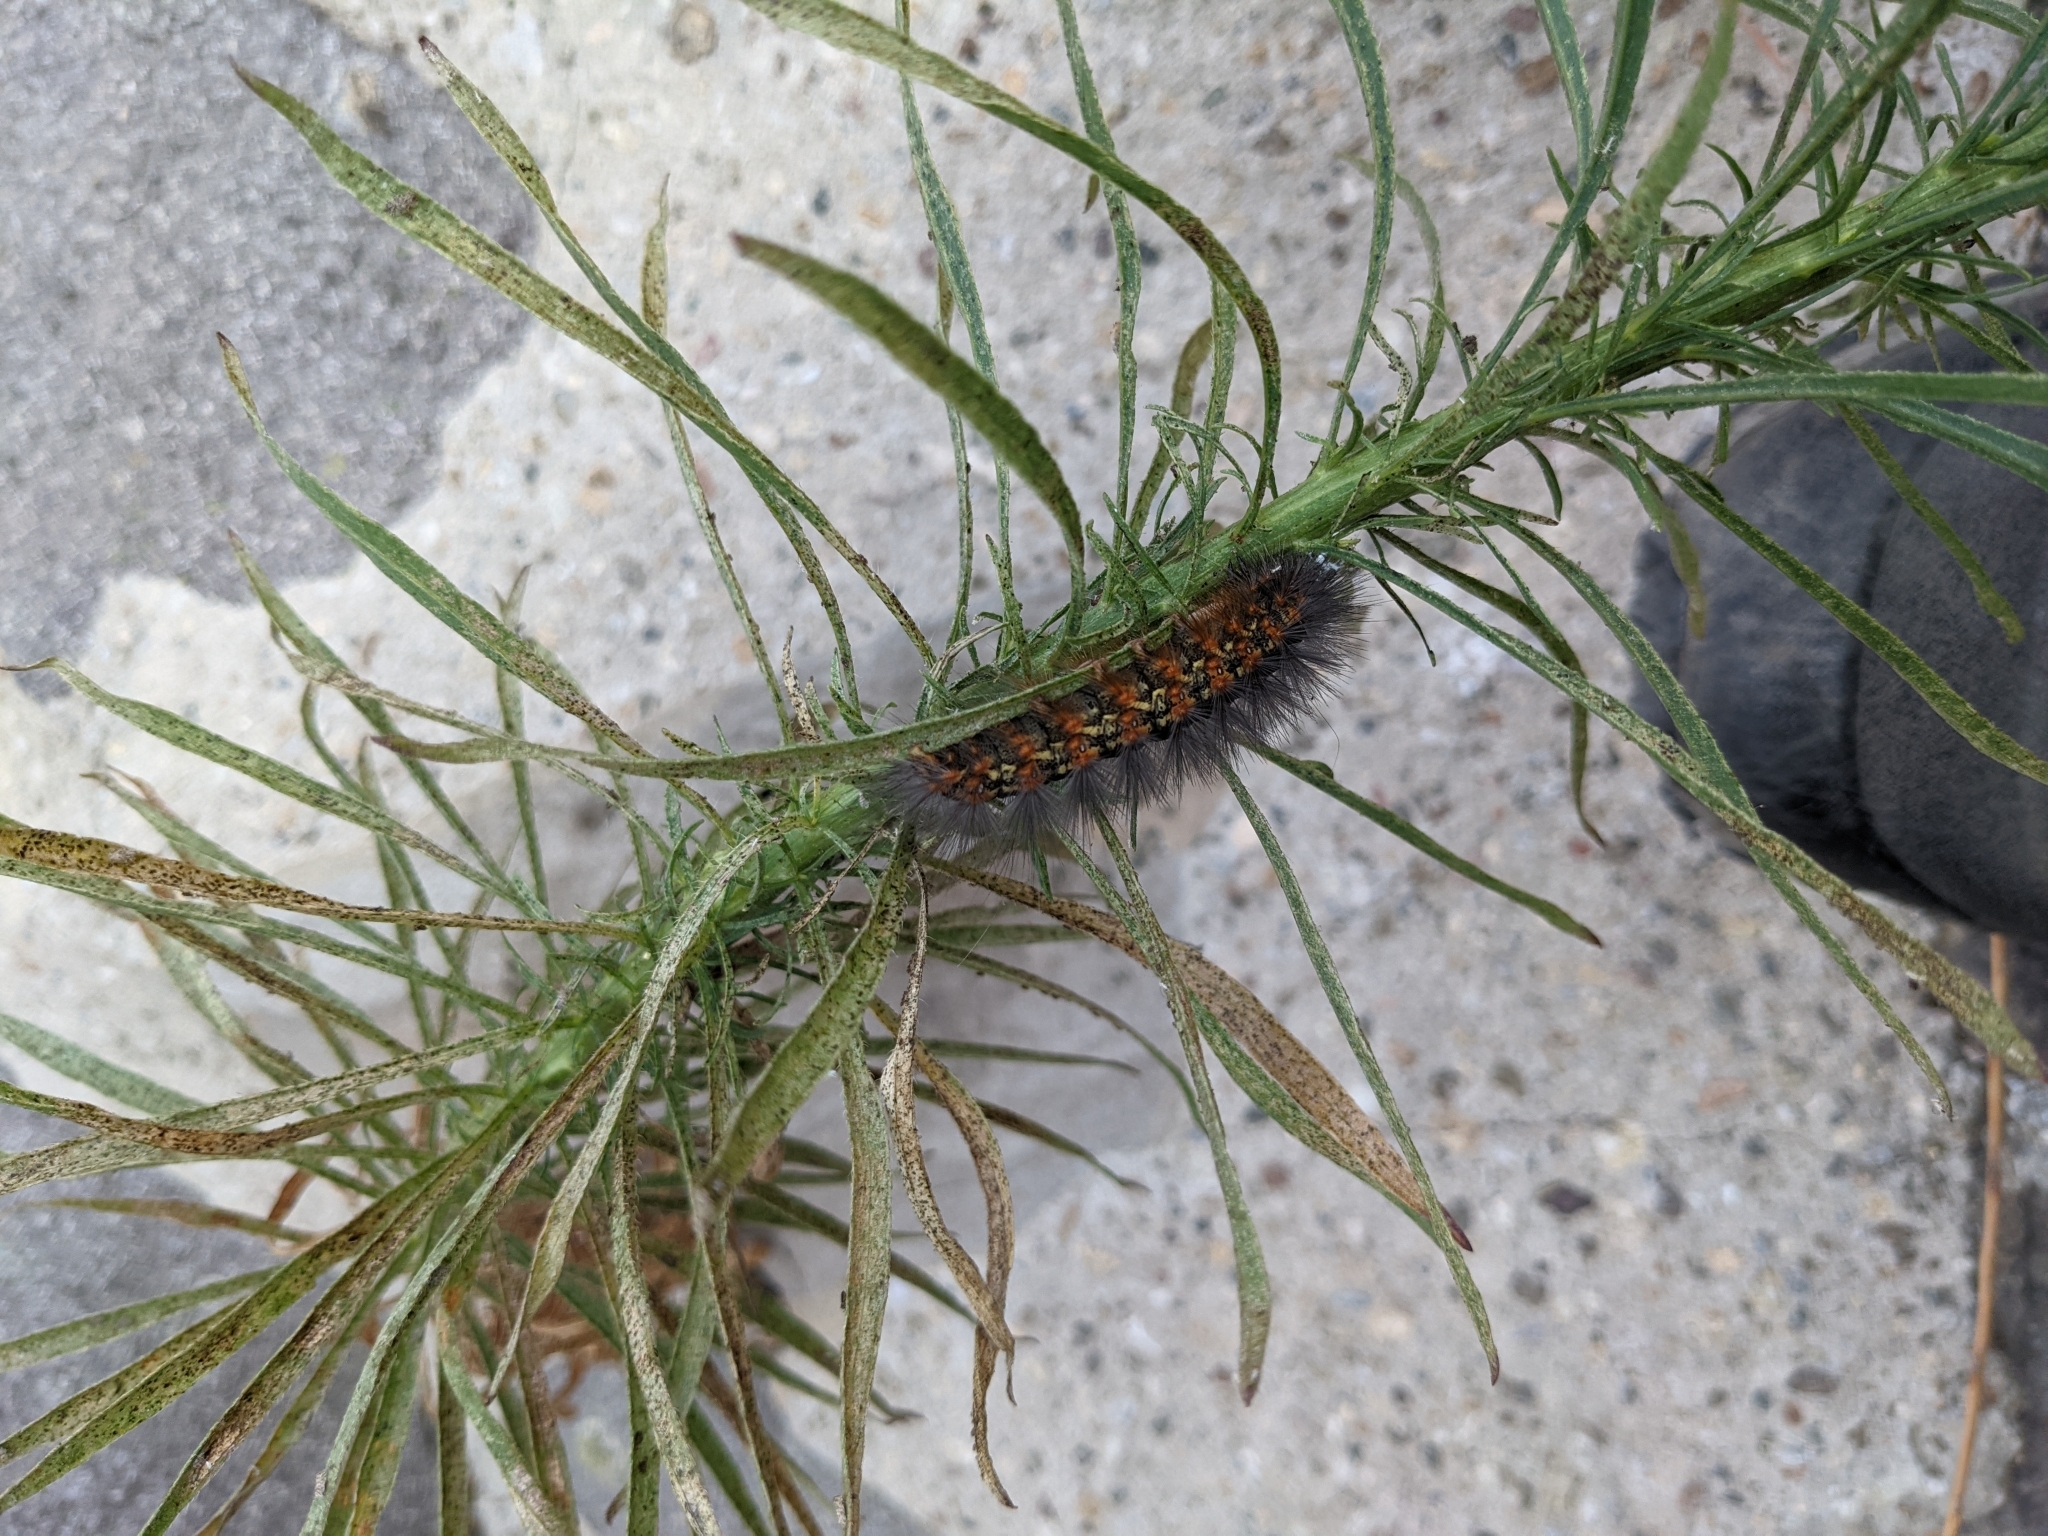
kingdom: Animalia
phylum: Arthropoda
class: Insecta
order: Lepidoptera
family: Erebidae
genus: Estigmene
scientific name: Estigmene acrea
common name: Salt marsh moth
